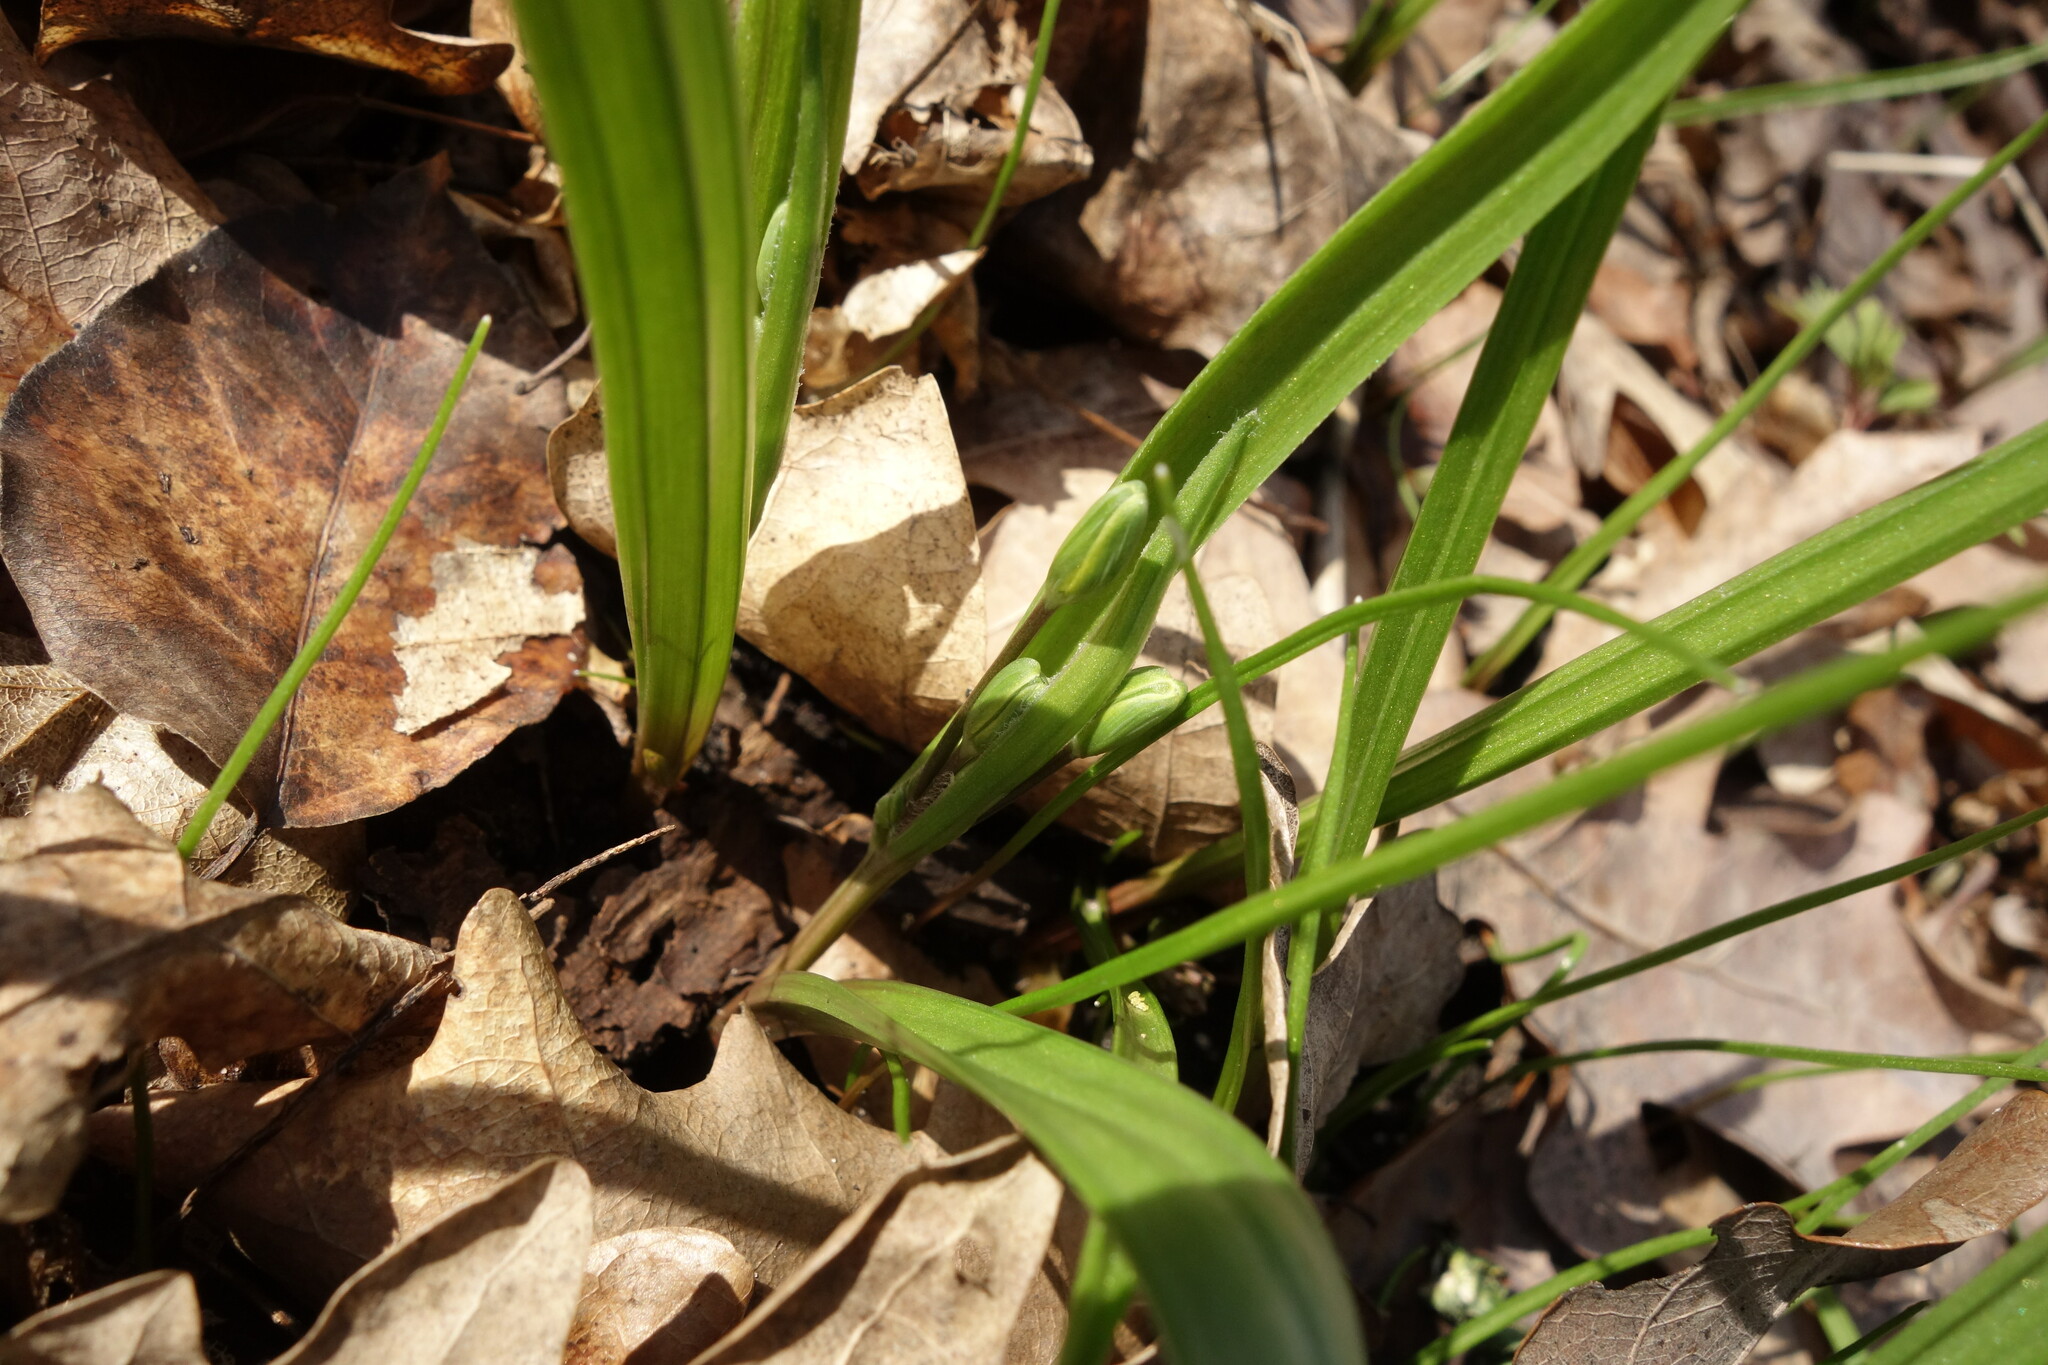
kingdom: Plantae
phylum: Tracheophyta
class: Liliopsida
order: Liliales
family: Liliaceae
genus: Gagea
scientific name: Gagea lutea
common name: Yellow star-of-bethlehem
